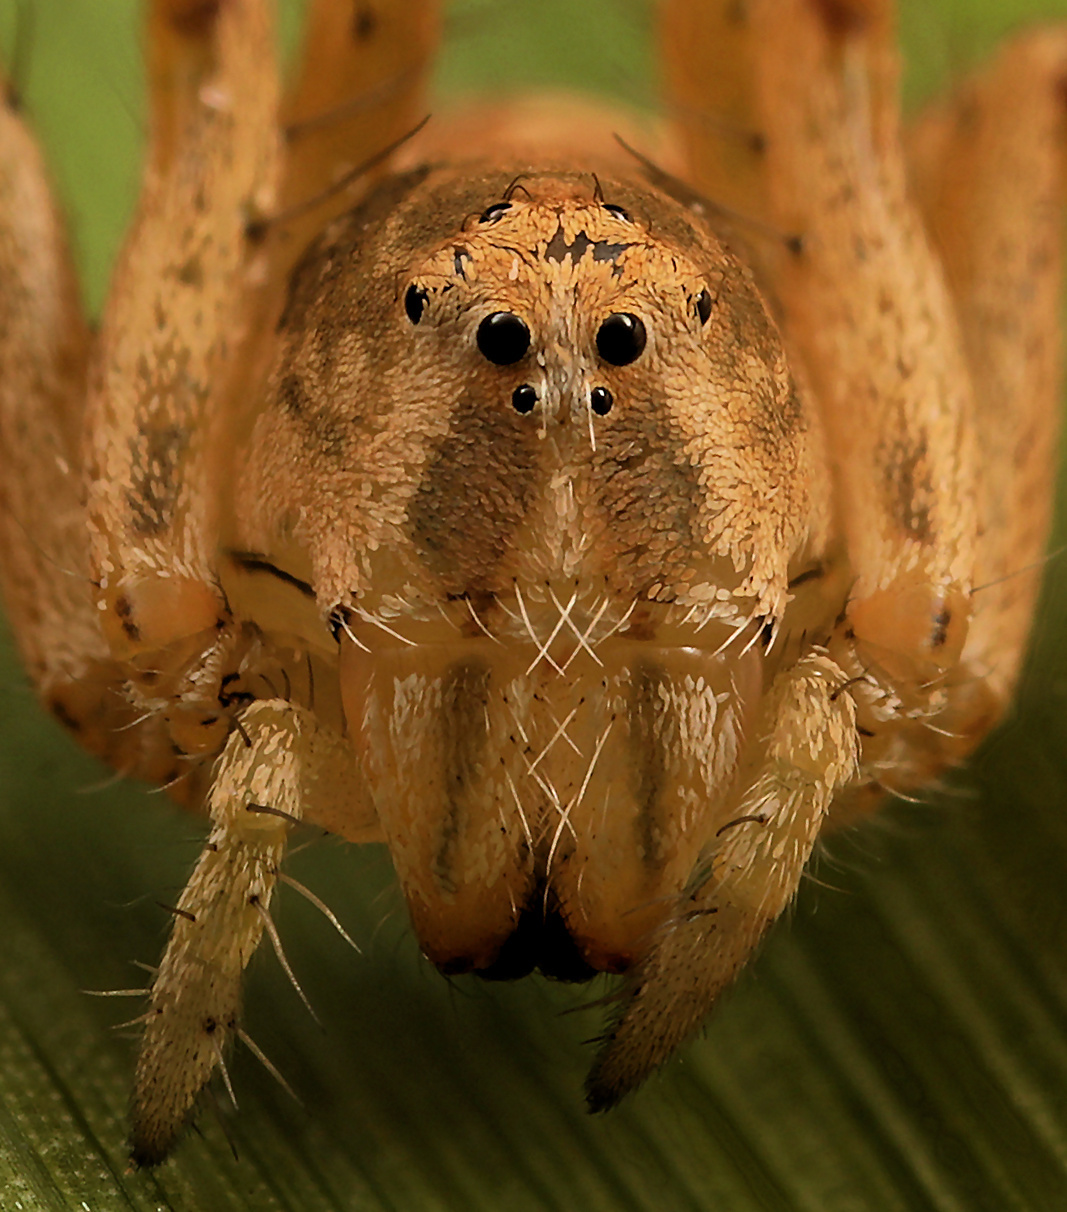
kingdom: Animalia
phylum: Arthropoda
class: Arachnida
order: Araneae
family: Oxyopidae
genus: Oxyopes
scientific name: Oxyopes hoggi
